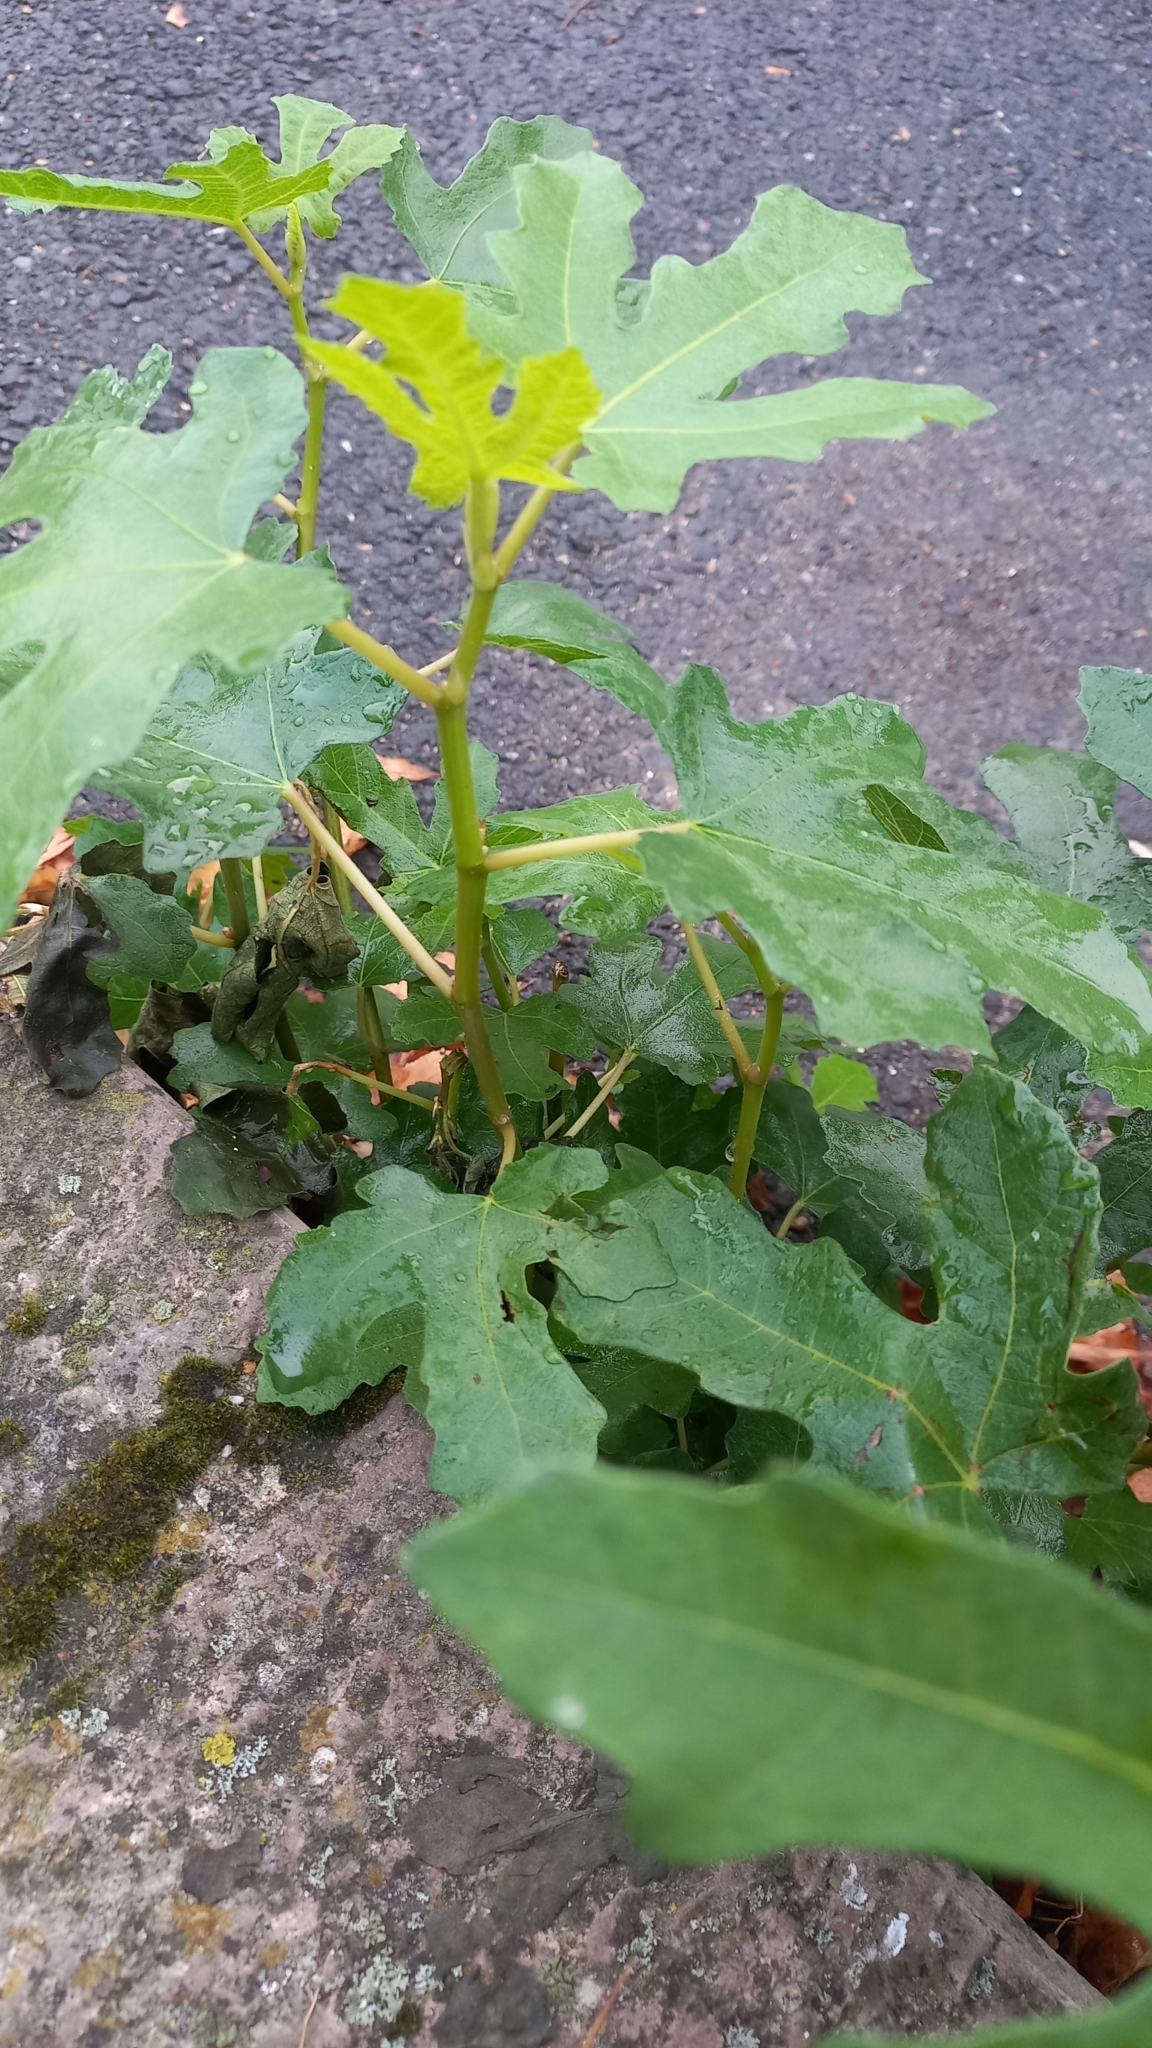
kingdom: Plantae
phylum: Tracheophyta
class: Magnoliopsida
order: Rosales
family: Moraceae
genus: Ficus
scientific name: Ficus carica
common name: Fig
